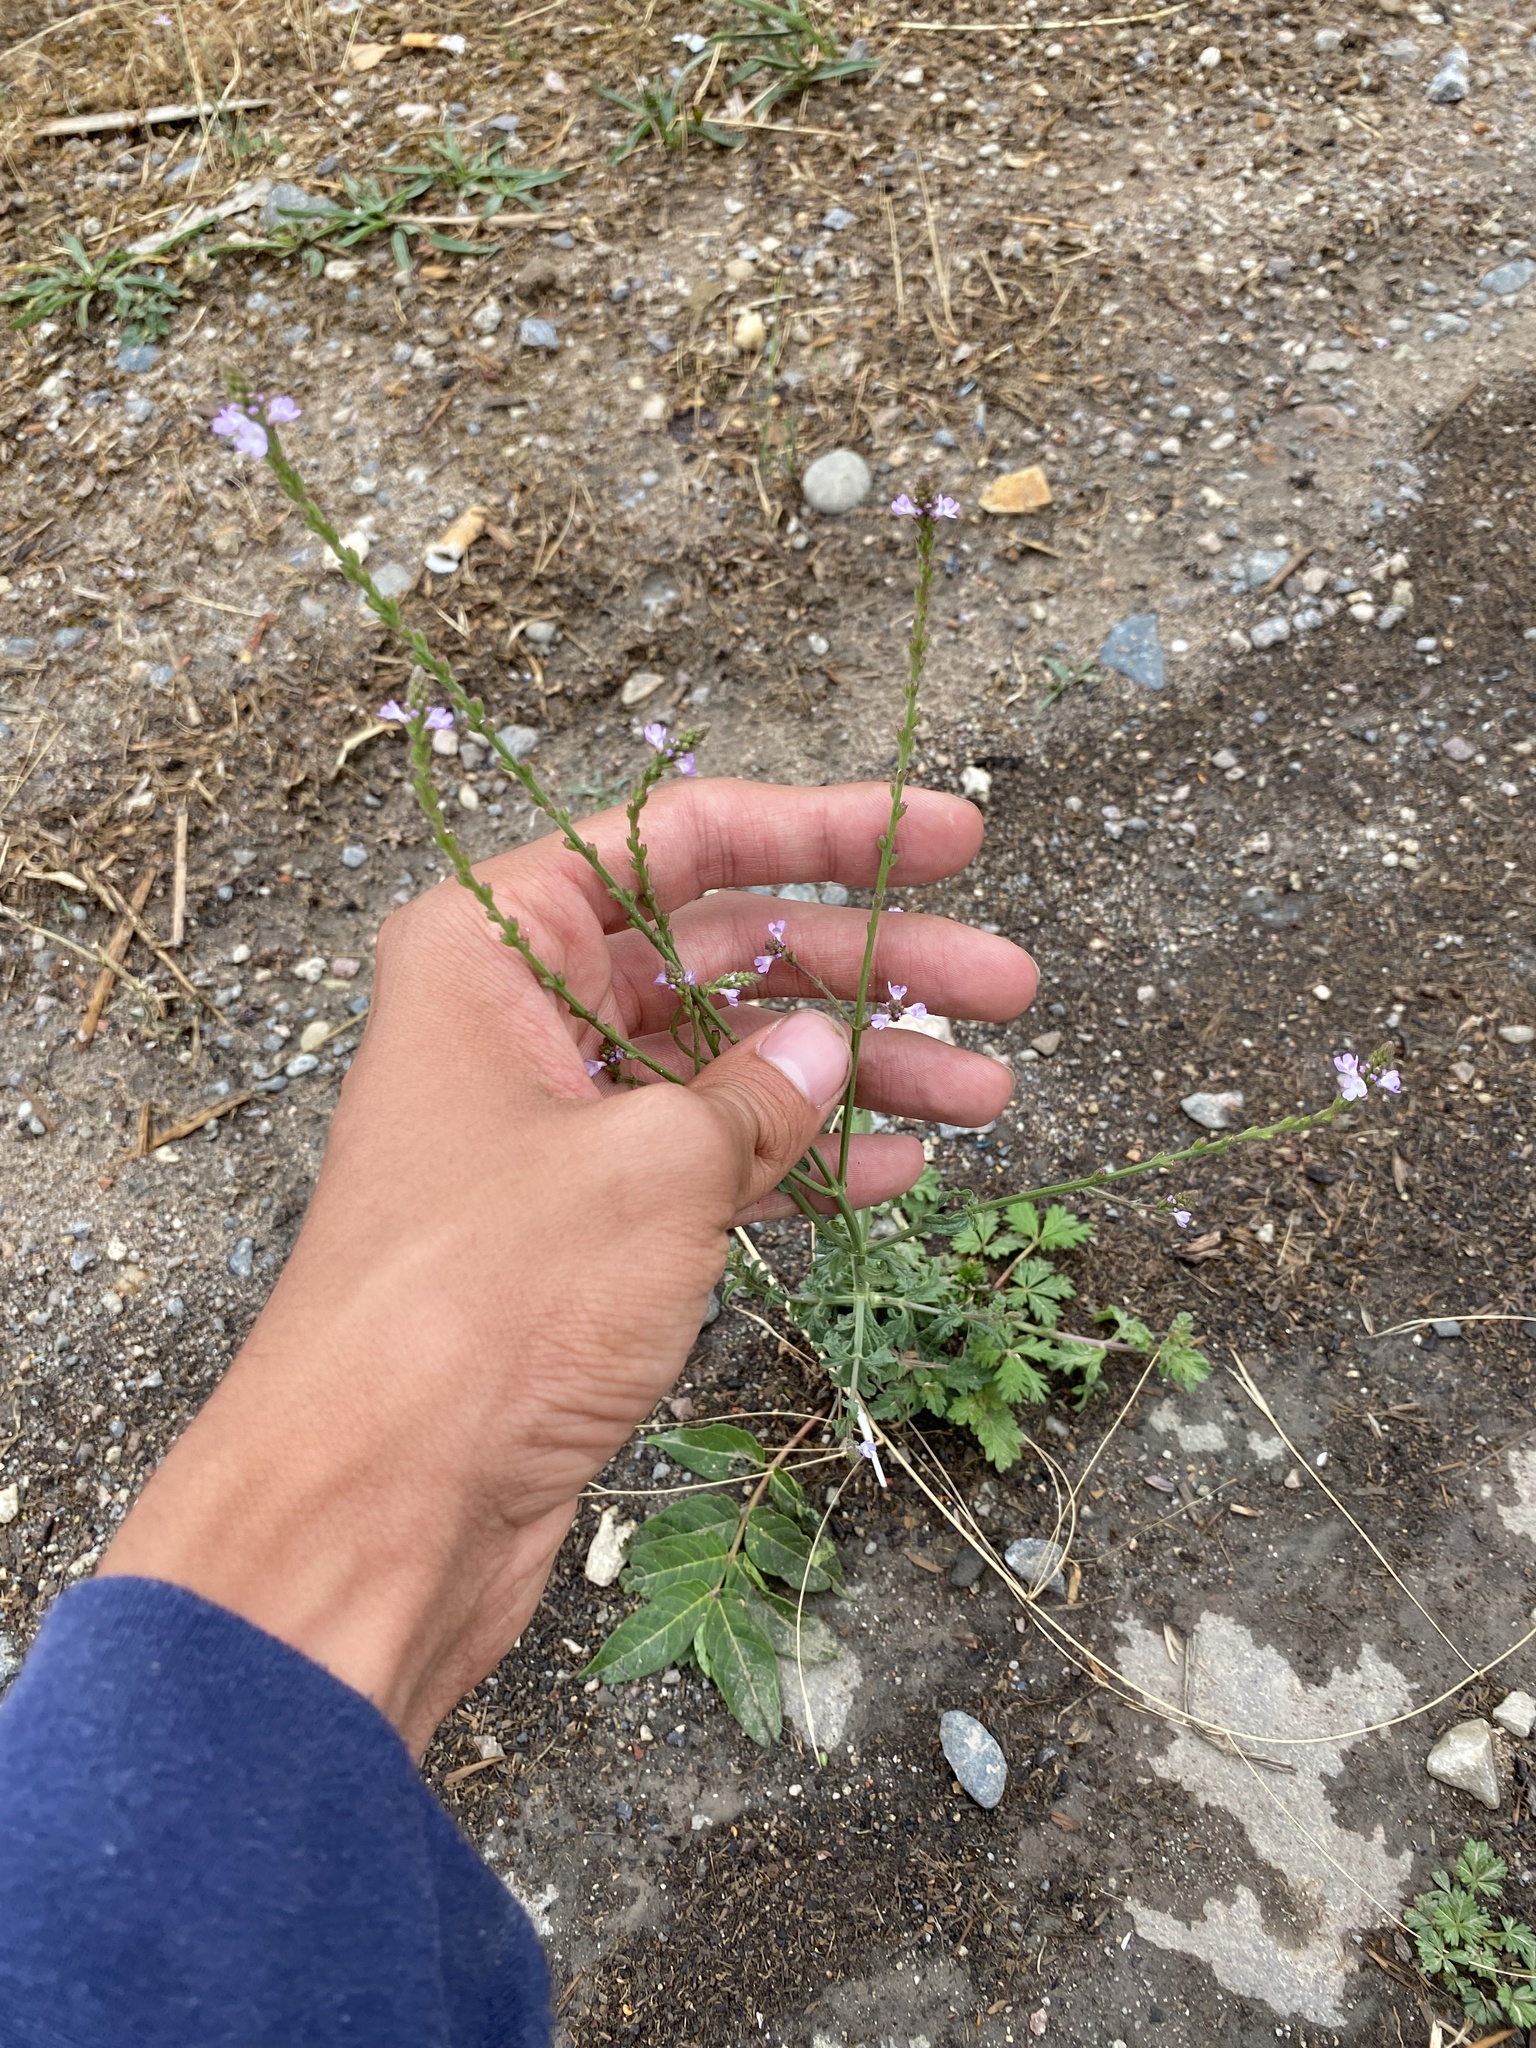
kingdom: Plantae
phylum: Tracheophyta
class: Magnoliopsida
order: Lamiales
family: Verbenaceae
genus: Verbena
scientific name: Verbena officinalis
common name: Vervain
